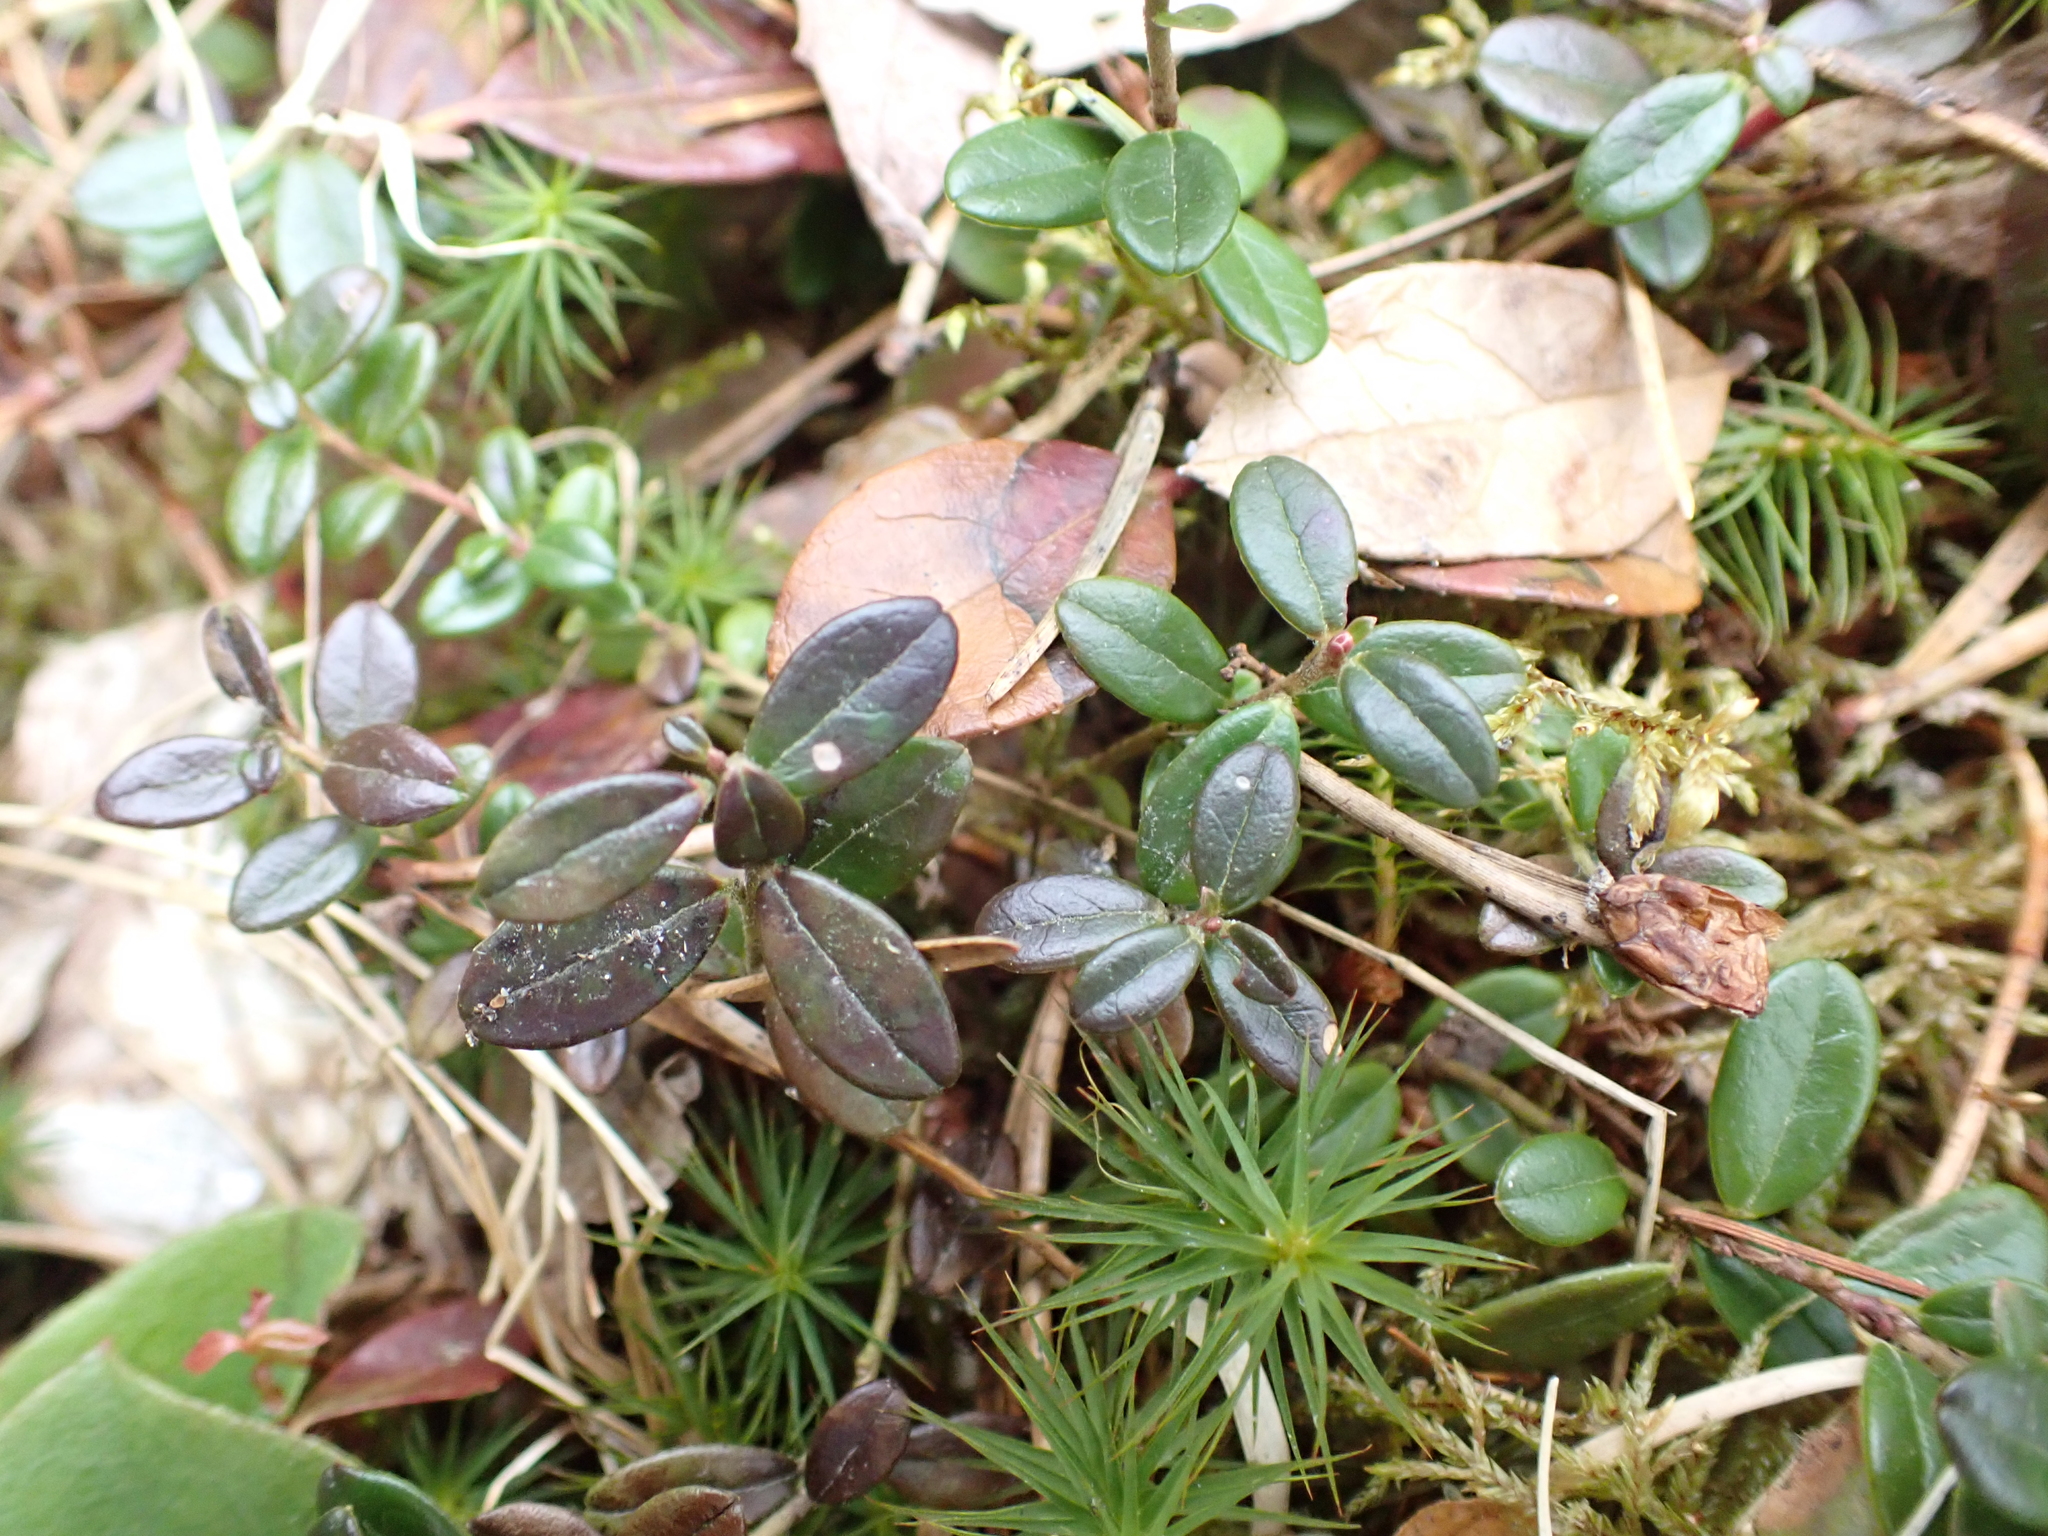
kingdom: Plantae
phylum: Tracheophyta
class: Magnoliopsida
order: Ericales
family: Ericaceae
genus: Vaccinium
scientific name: Vaccinium vitis-idaea
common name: Cowberry
